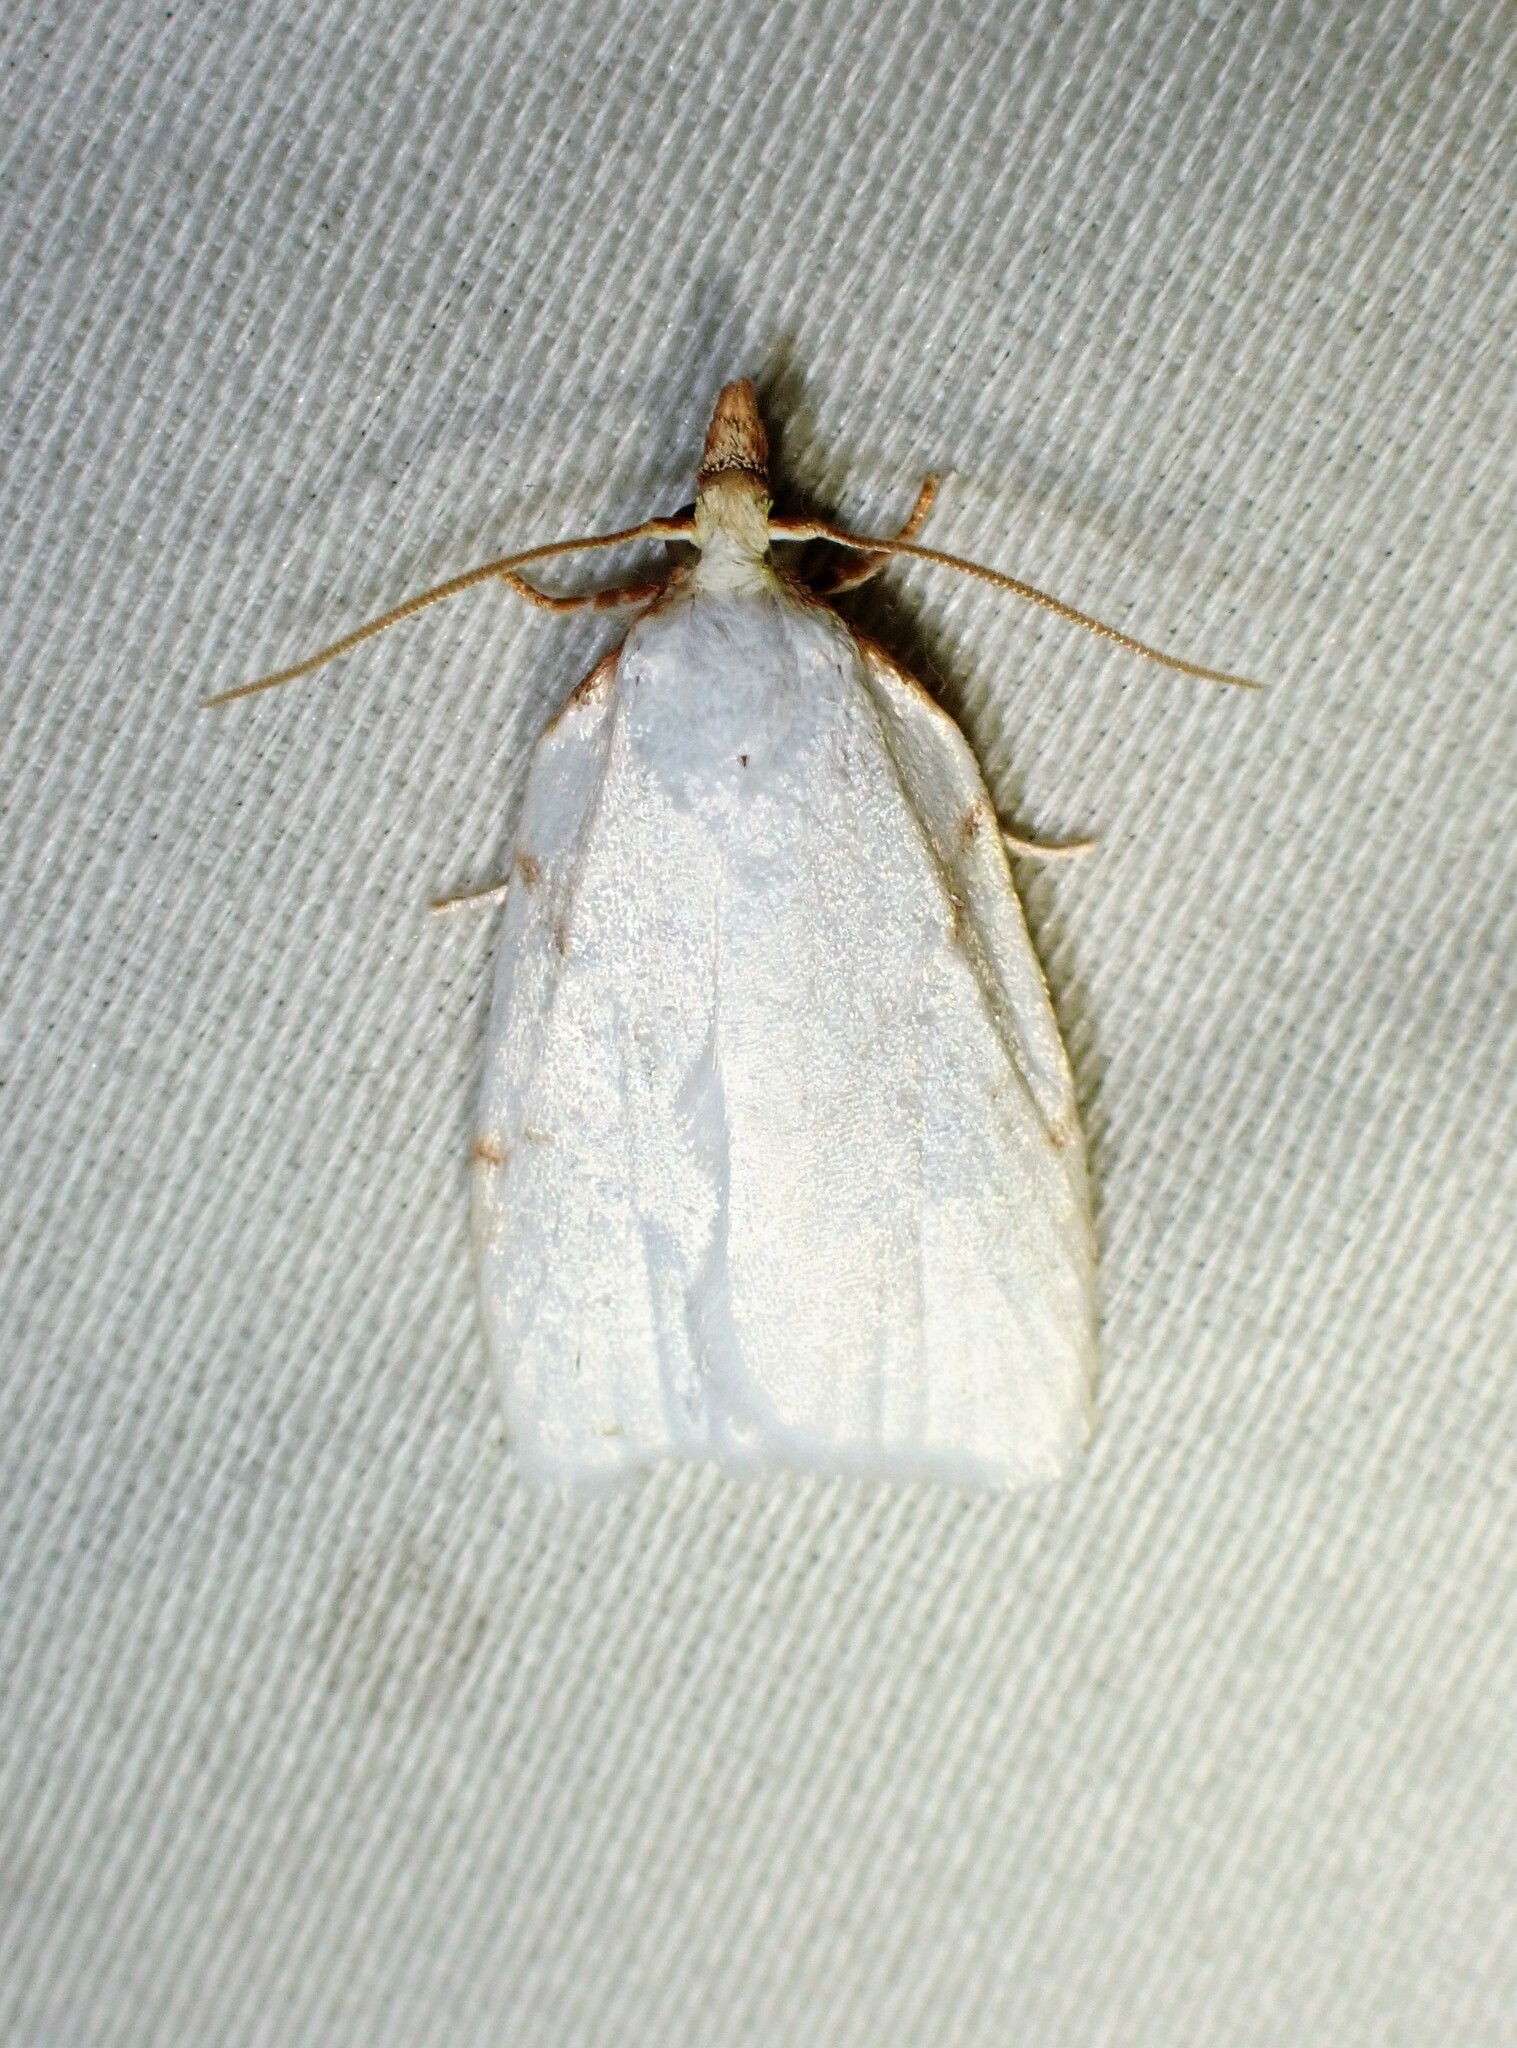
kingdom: Animalia
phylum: Arthropoda
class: Insecta
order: Lepidoptera
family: Tortricidae
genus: Cenopis
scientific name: Cenopis pettitana
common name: Maple-basswood leafroller moth
